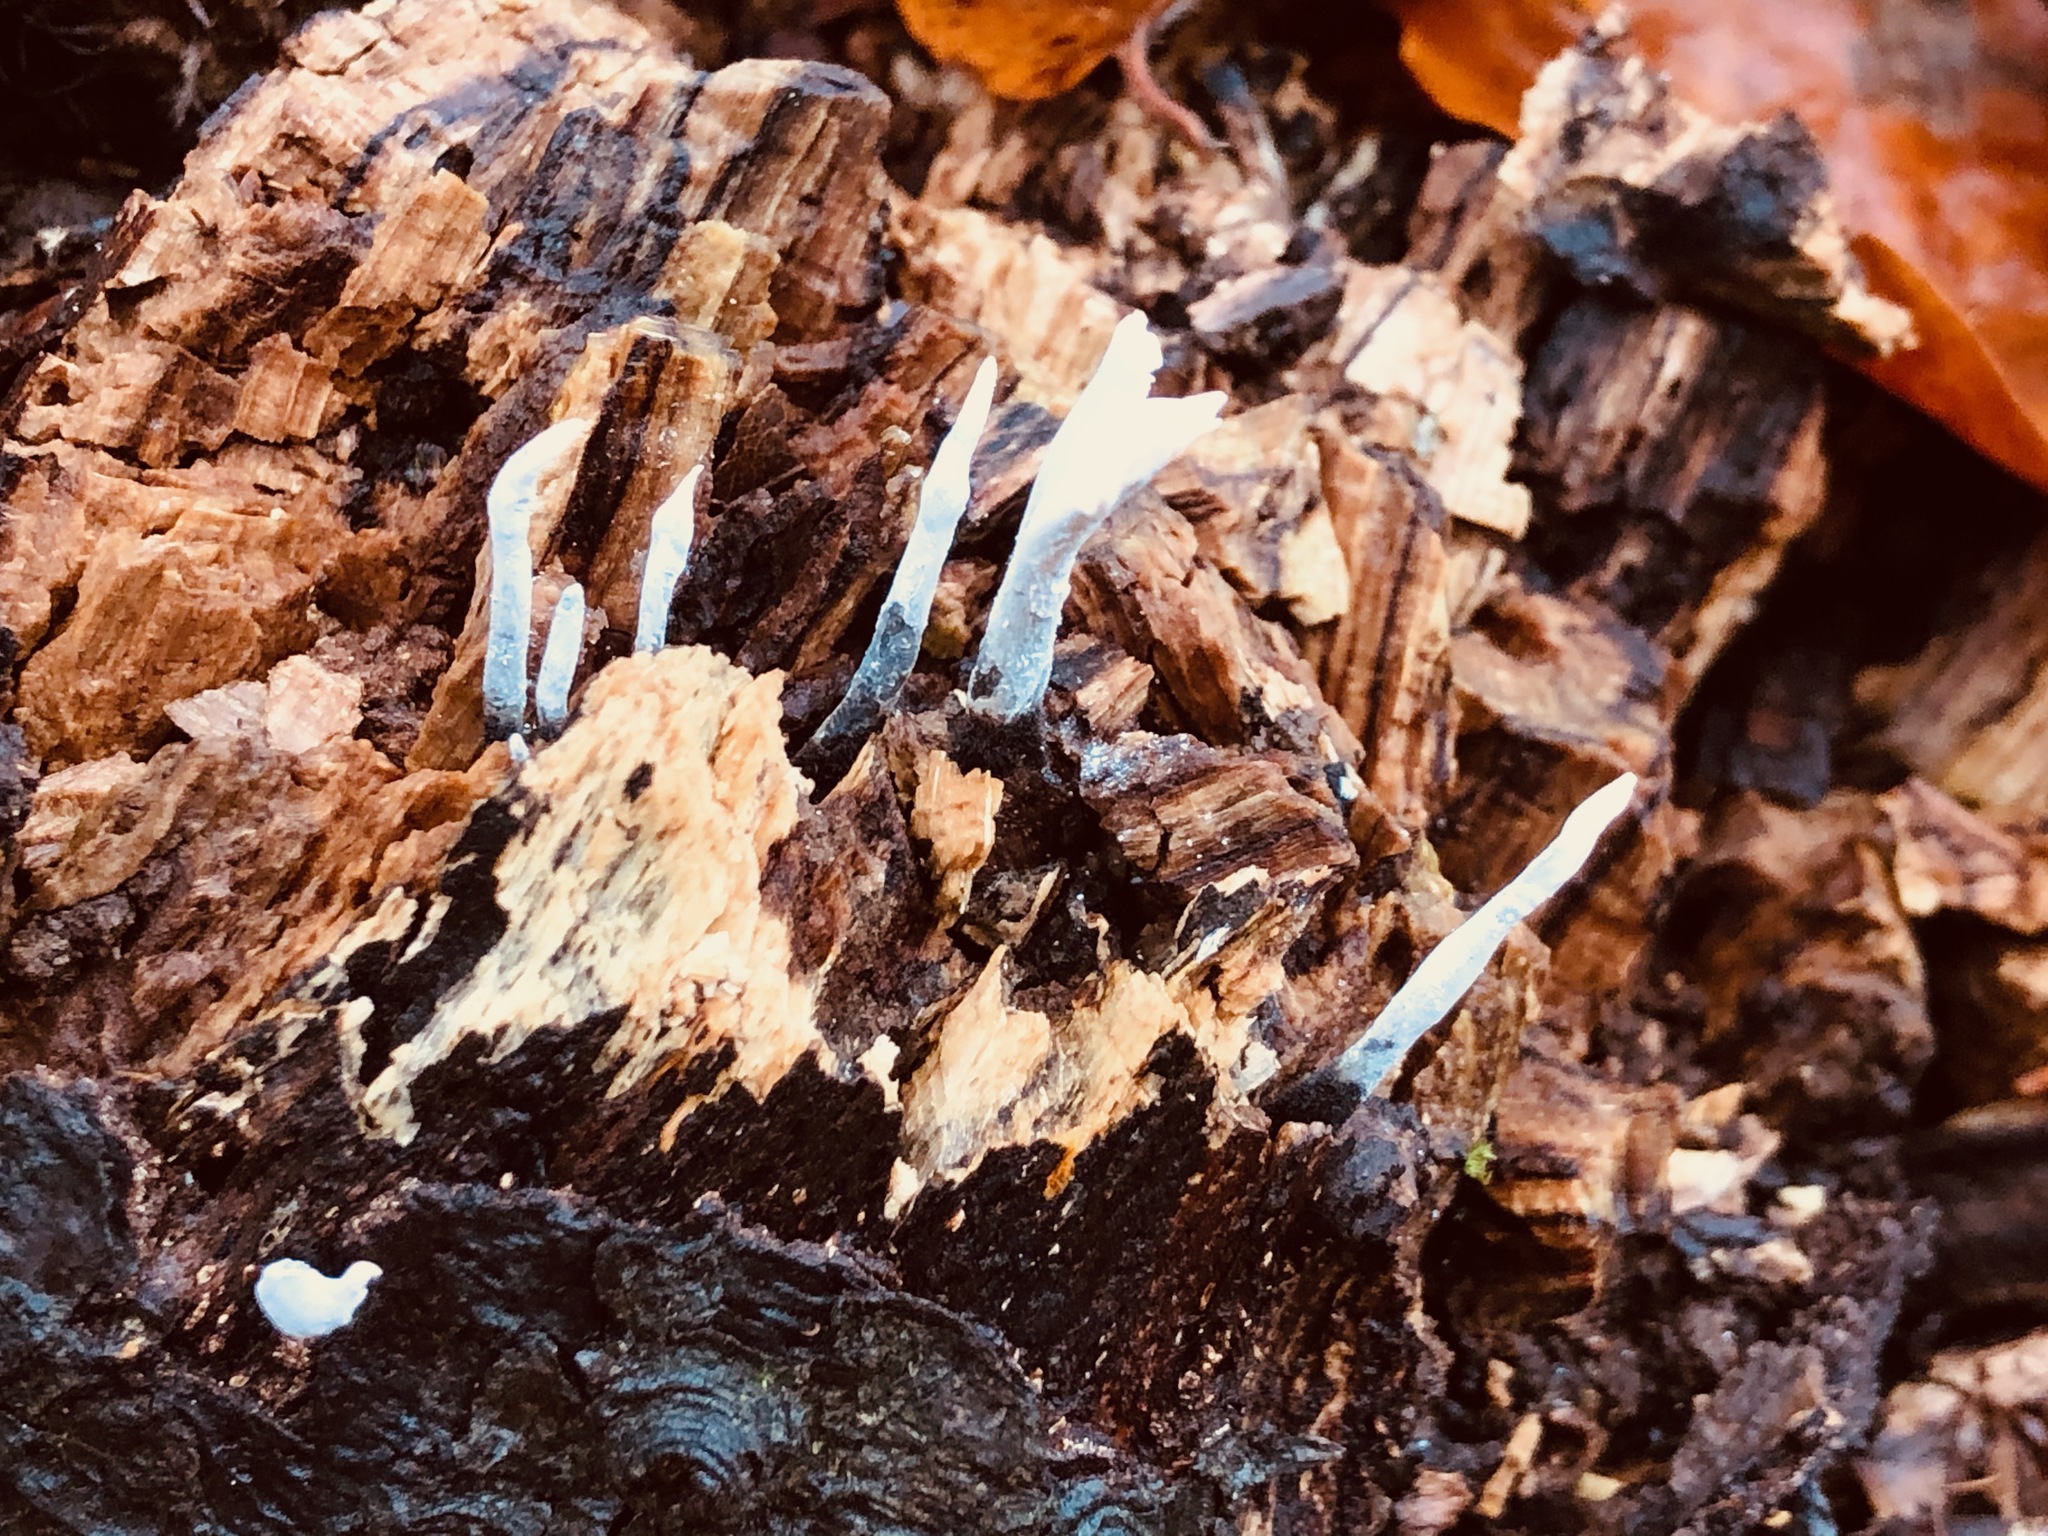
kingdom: Fungi
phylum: Ascomycota
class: Sordariomycetes
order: Xylariales
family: Xylariaceae
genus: Xylaria
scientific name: Xylaria hypoxylon
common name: Candle-snuff fungus
